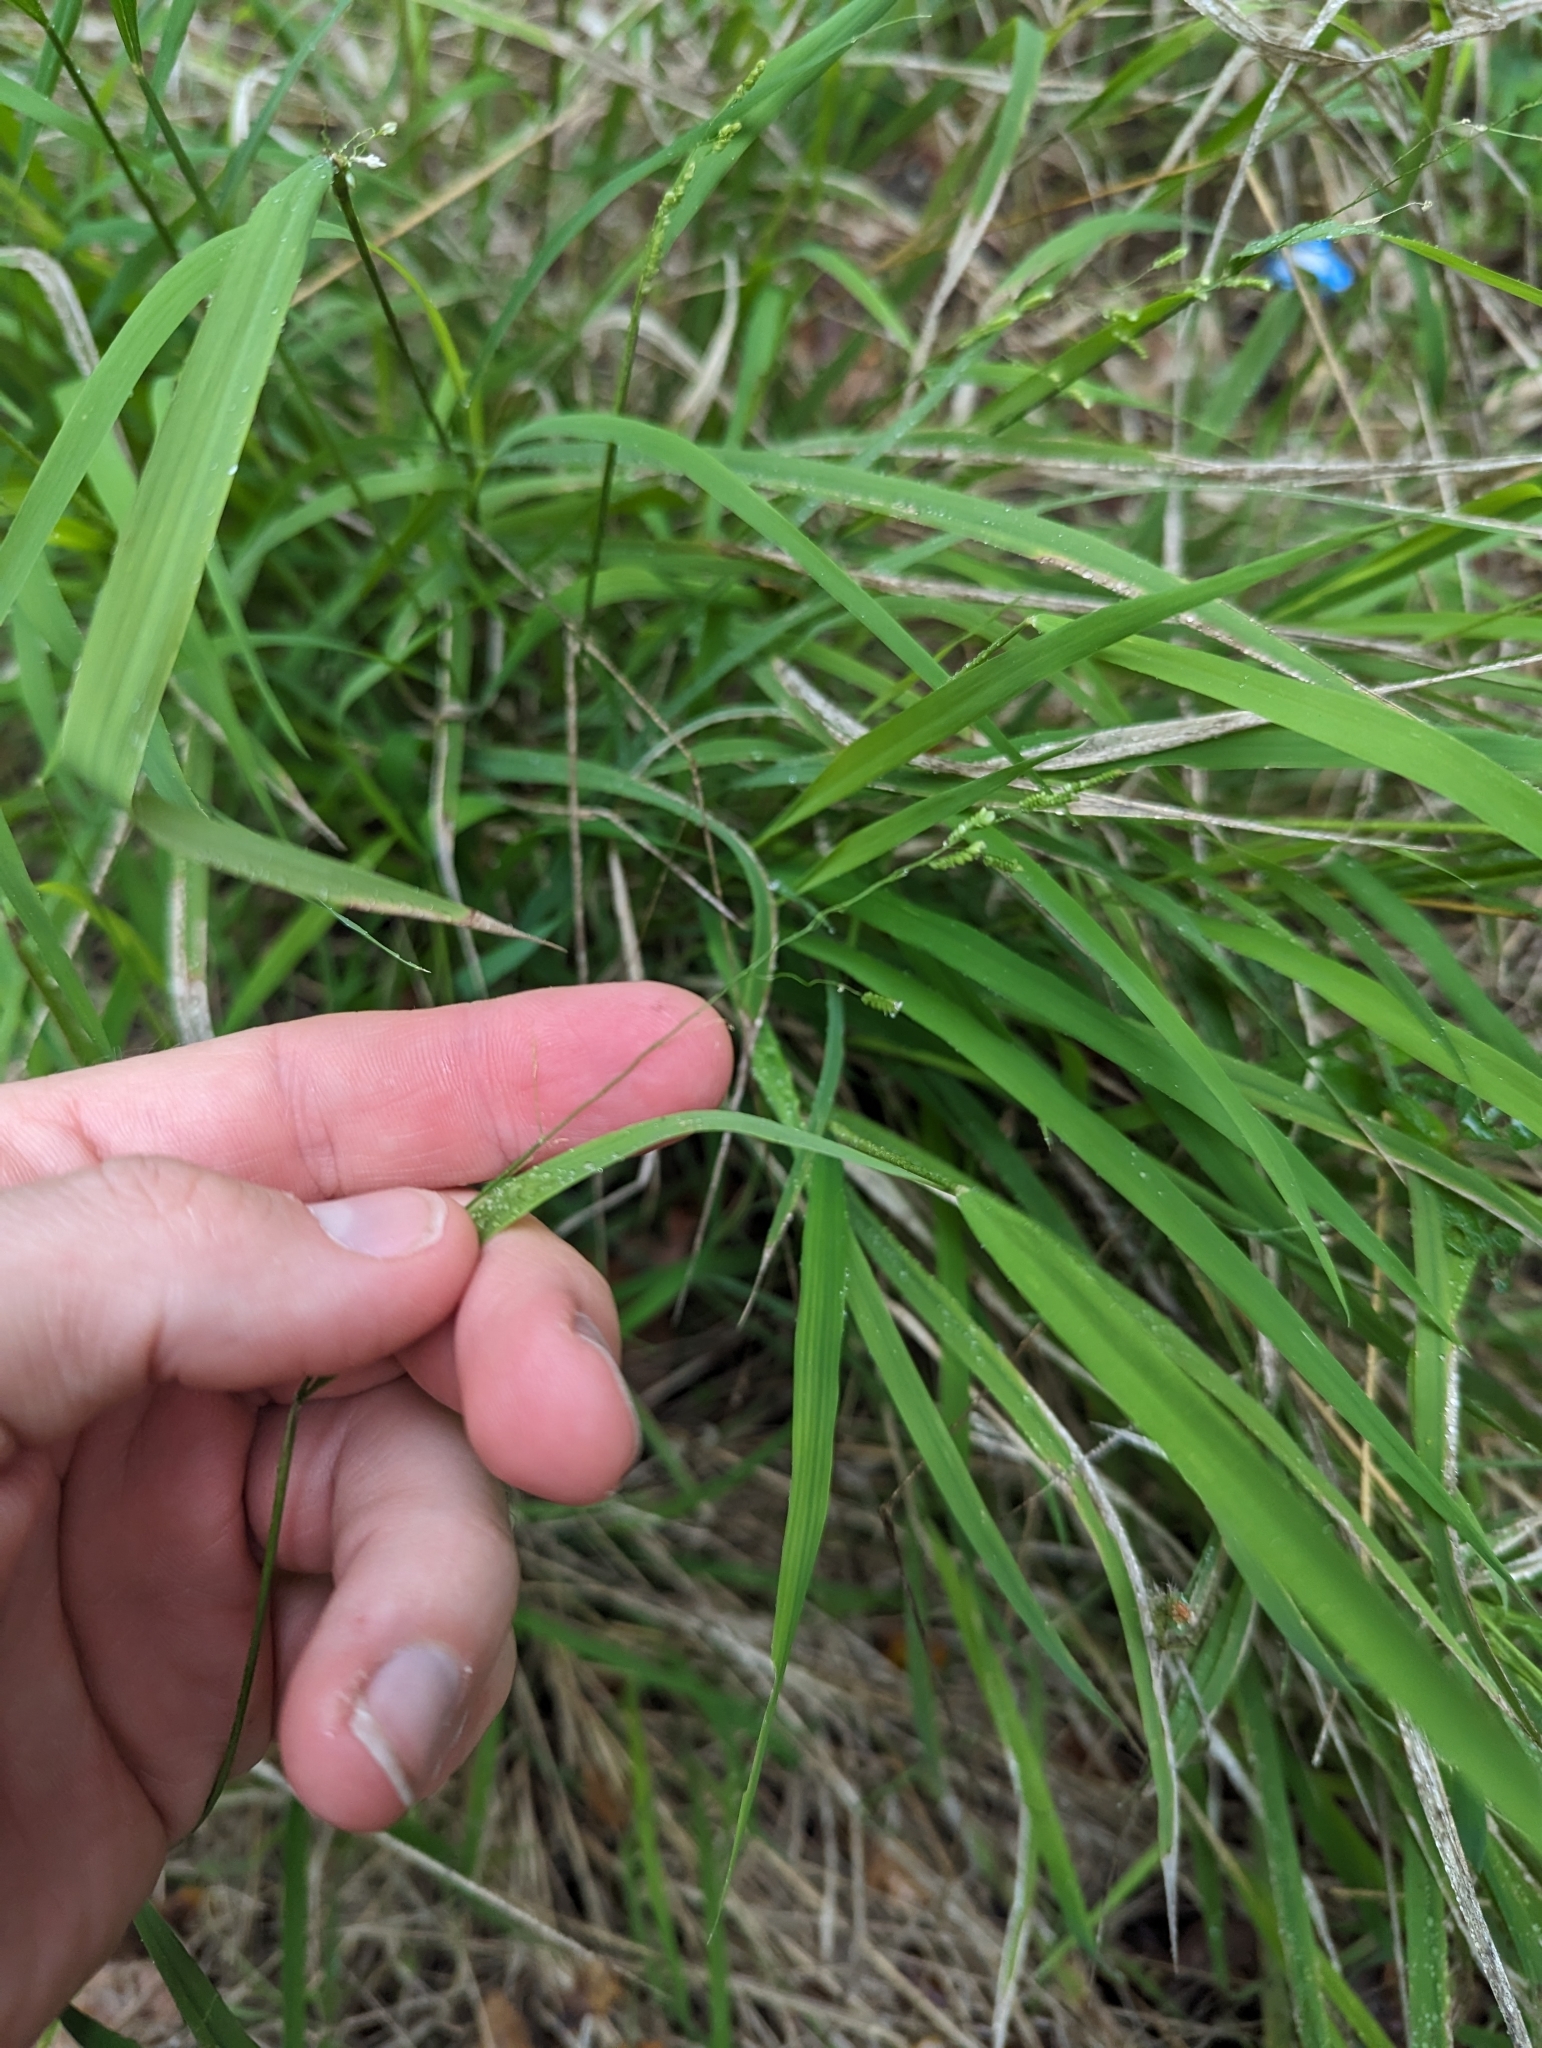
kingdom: Plantae
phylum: Tracheophyta
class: Liliopsida
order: Poales
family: Poaceae
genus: Leersia
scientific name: Leersia monandra
